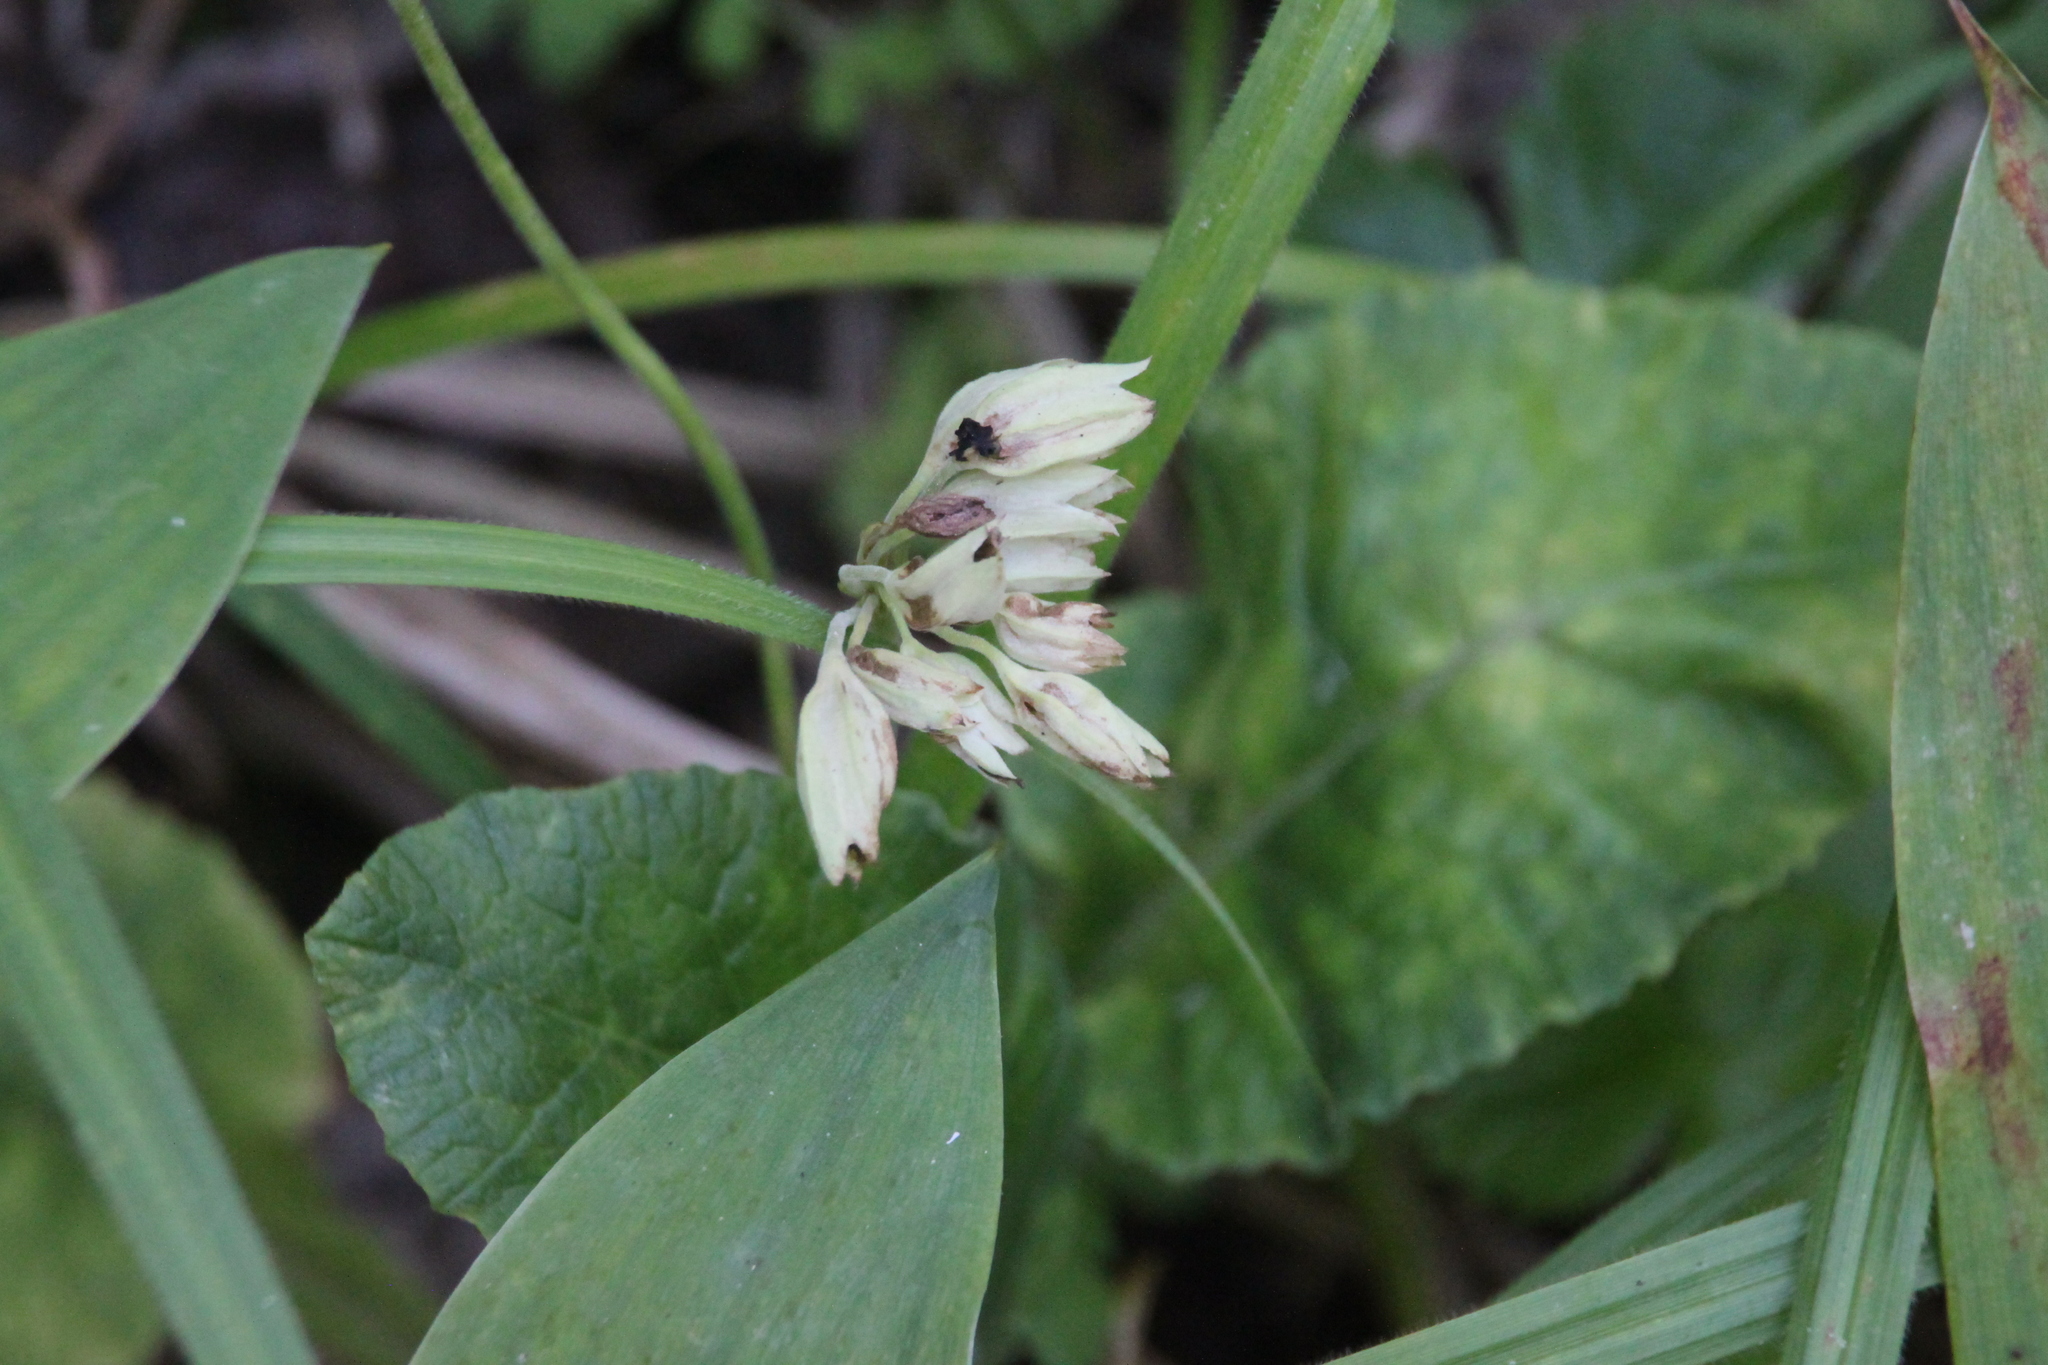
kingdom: Plantae
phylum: Tracheophyta
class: Magnoliopsida
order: Ericales
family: Primulaceae
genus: Primula
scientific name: Primula veris
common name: Cowslip
